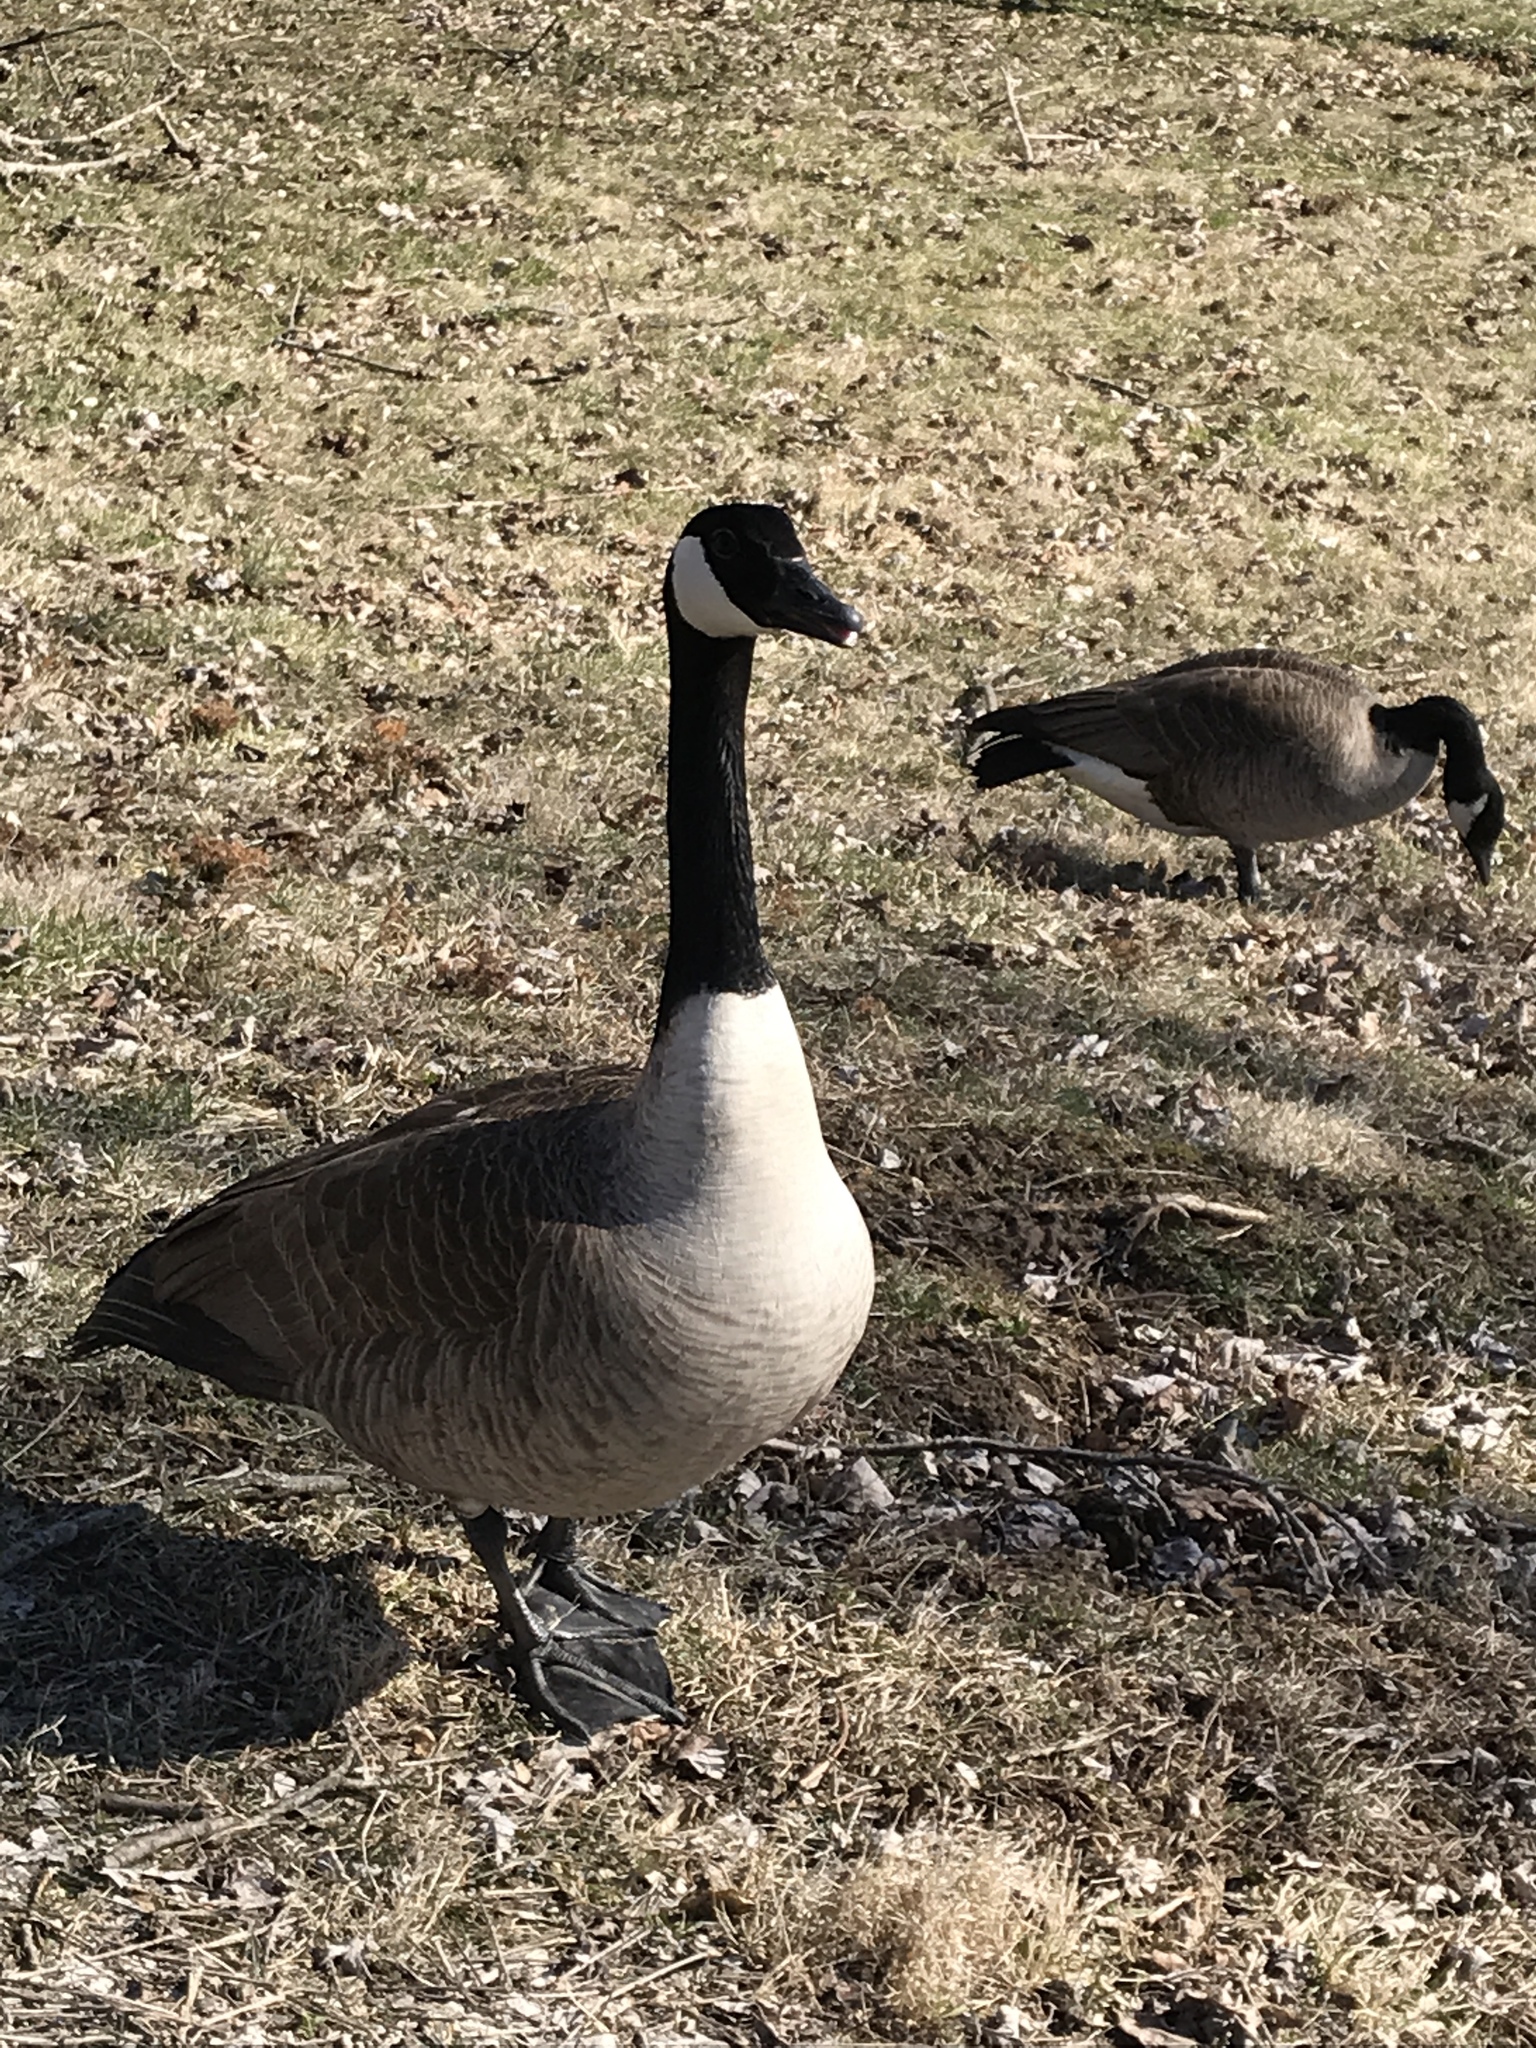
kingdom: Animalia
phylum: Chordata
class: Aves
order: Anseriformes
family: Anatidae
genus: Branta
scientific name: Branta canadensis
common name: Canada goose
